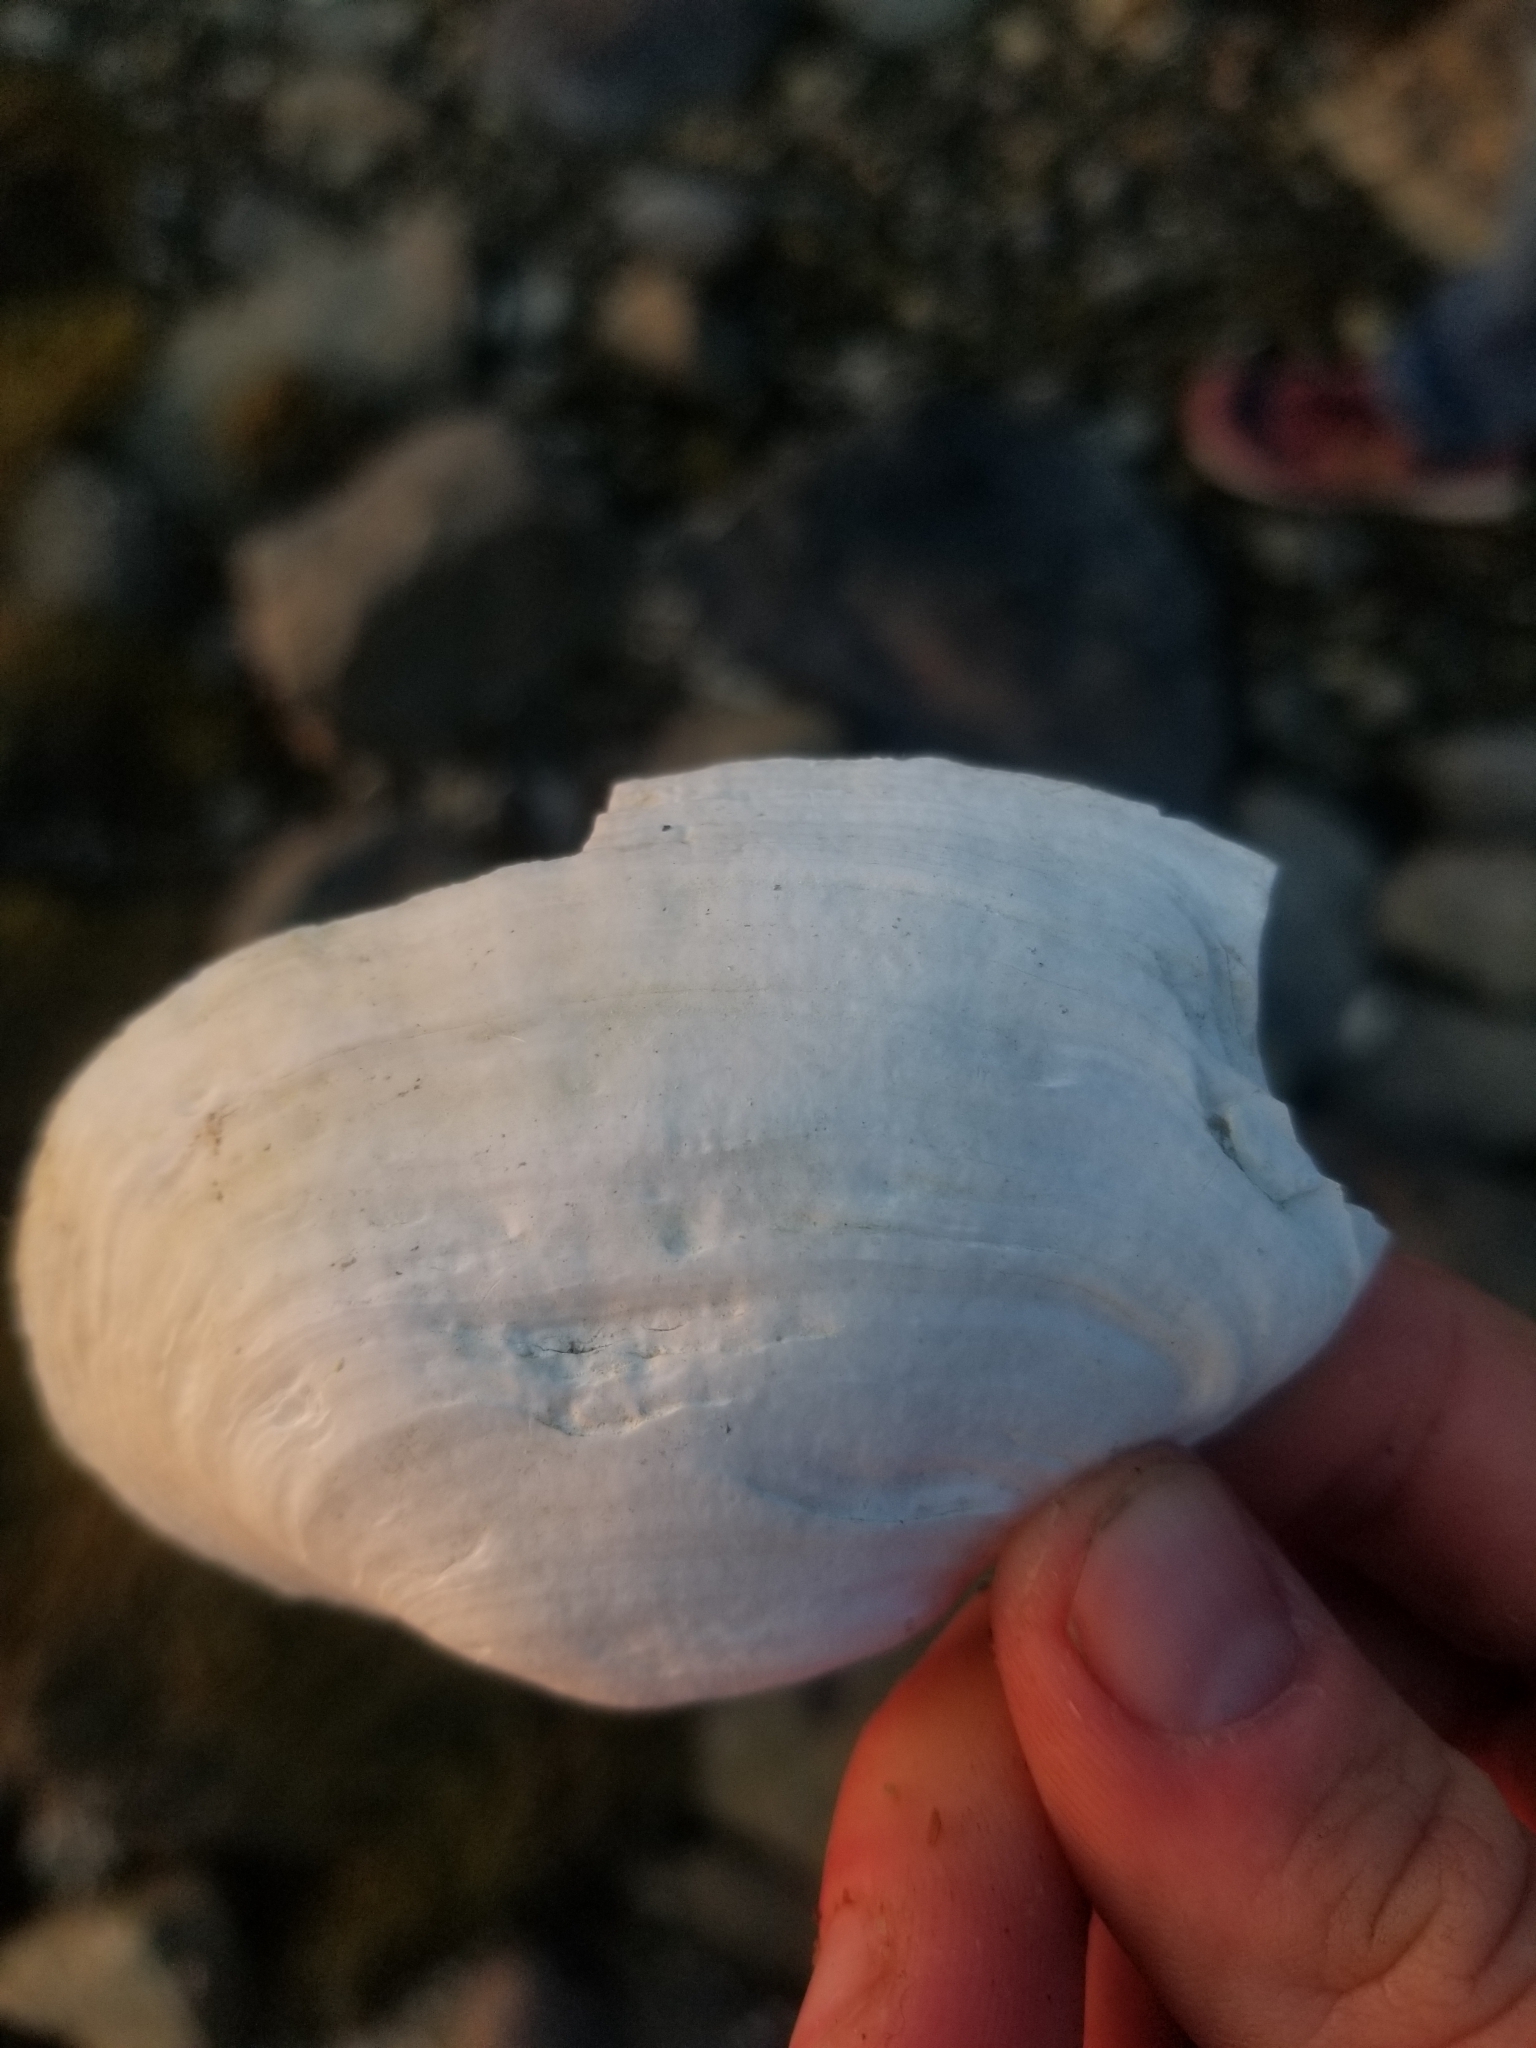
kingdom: Animalia
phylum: Mollusca
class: Bivalvia
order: Myida
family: Myidae
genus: Mya
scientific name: Mya arenaria
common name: Soft-shelled clam
